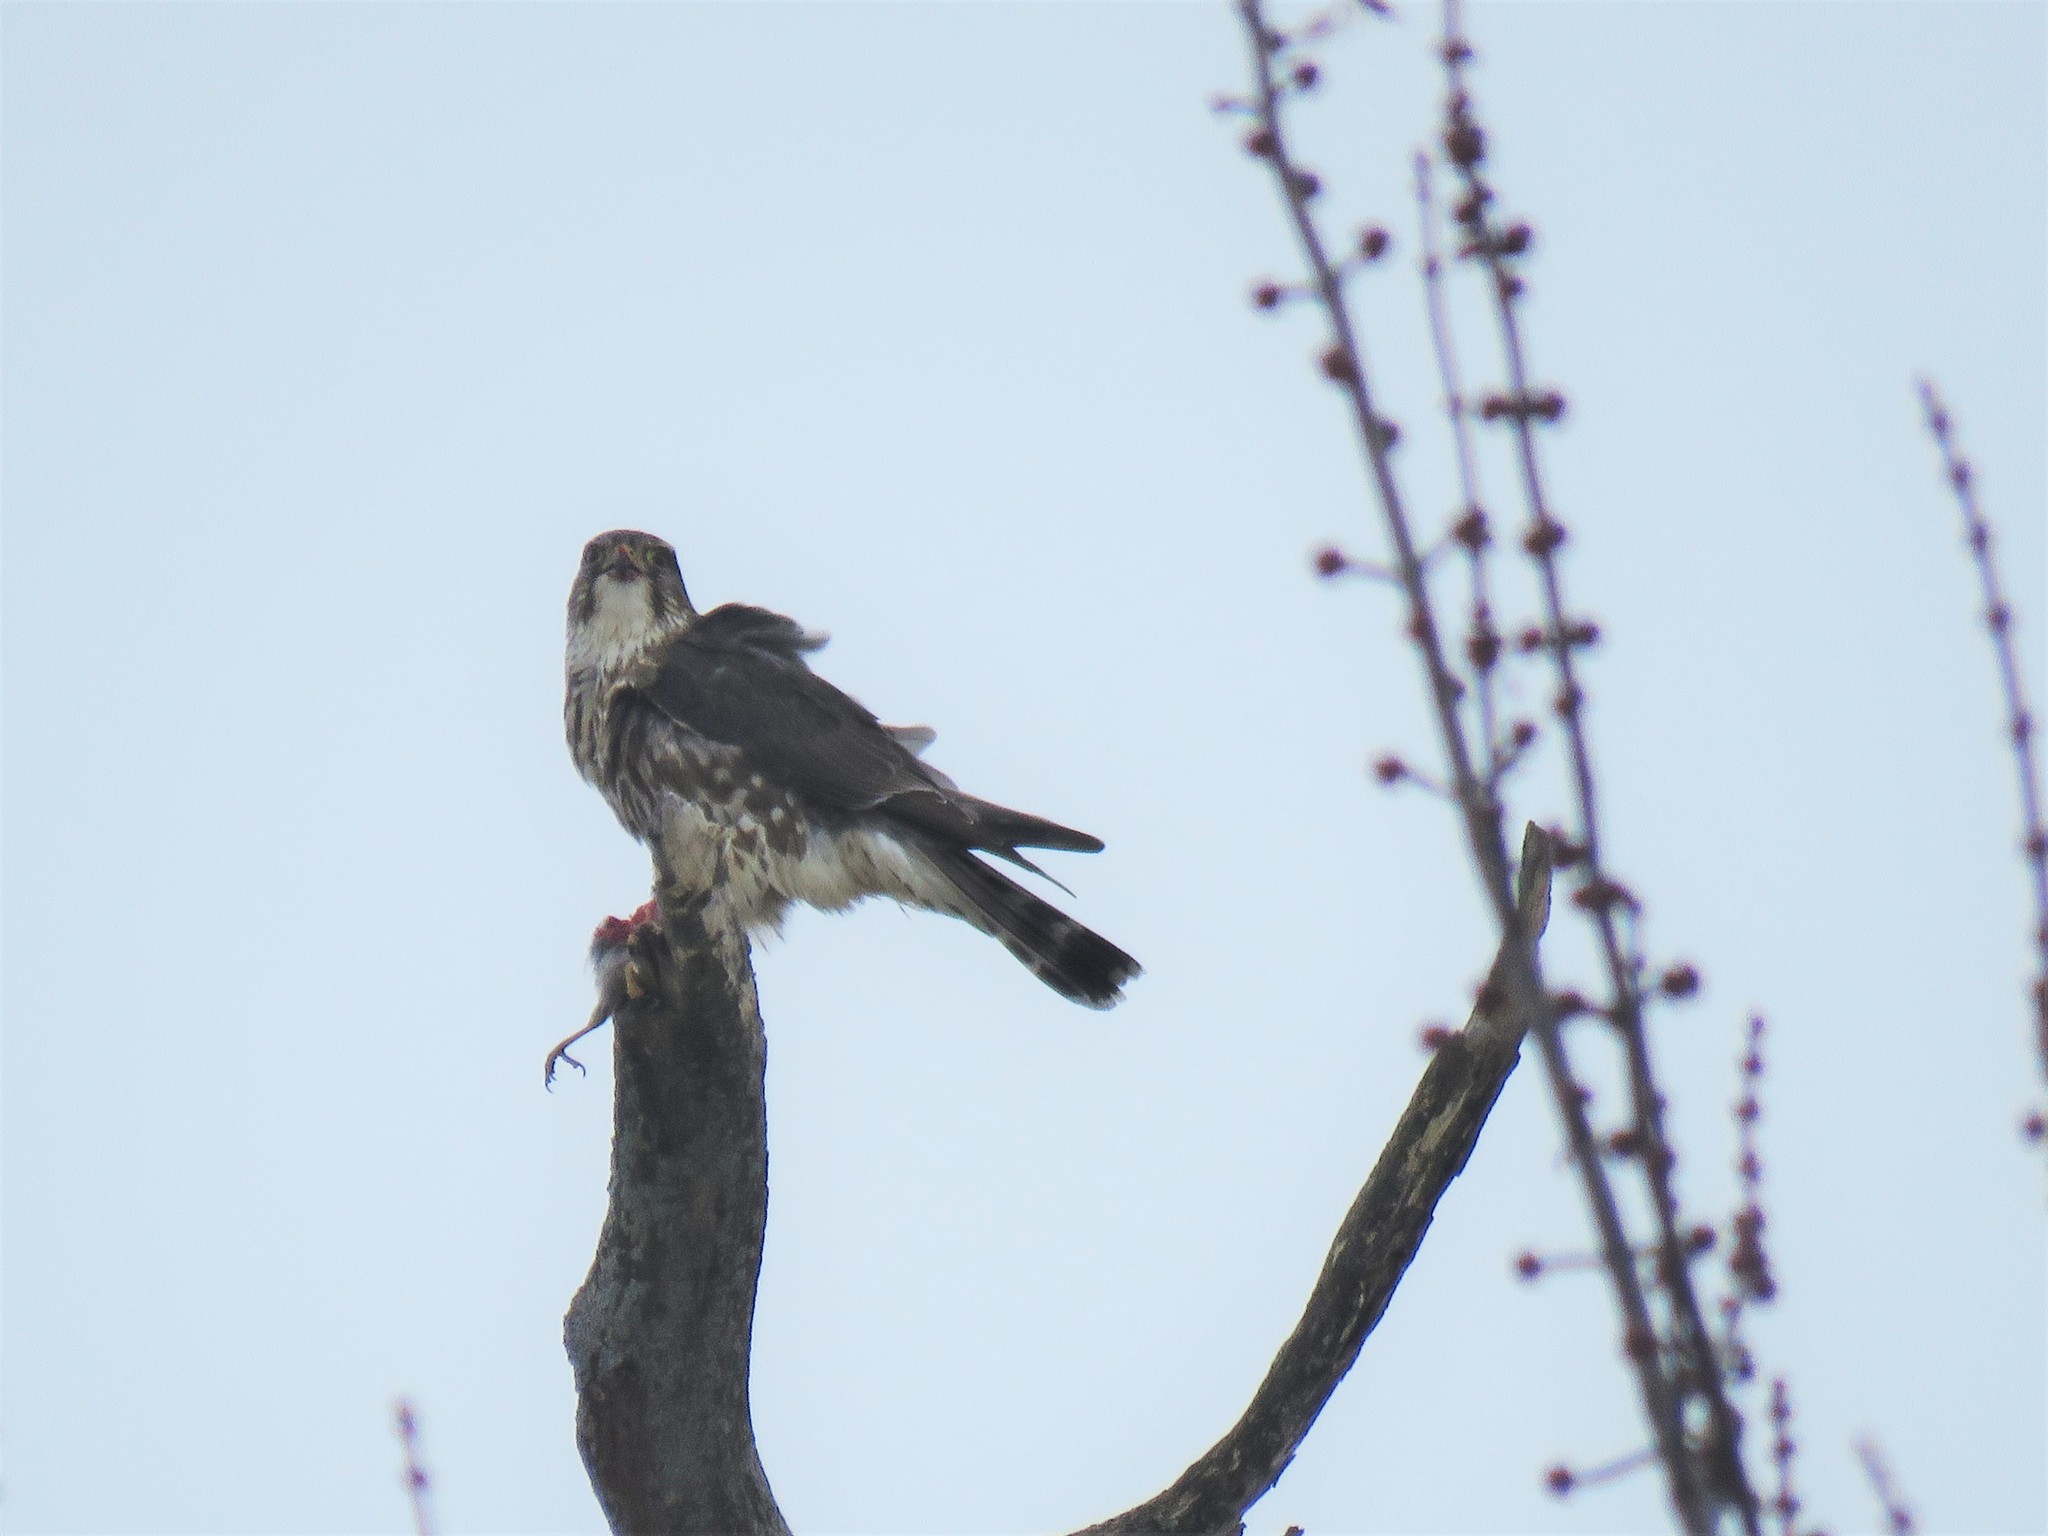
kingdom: Animalia
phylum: Chordata
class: Aves
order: Falconiformes
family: Falconidae
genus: Falco
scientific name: Falco columbarius
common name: Merlin
